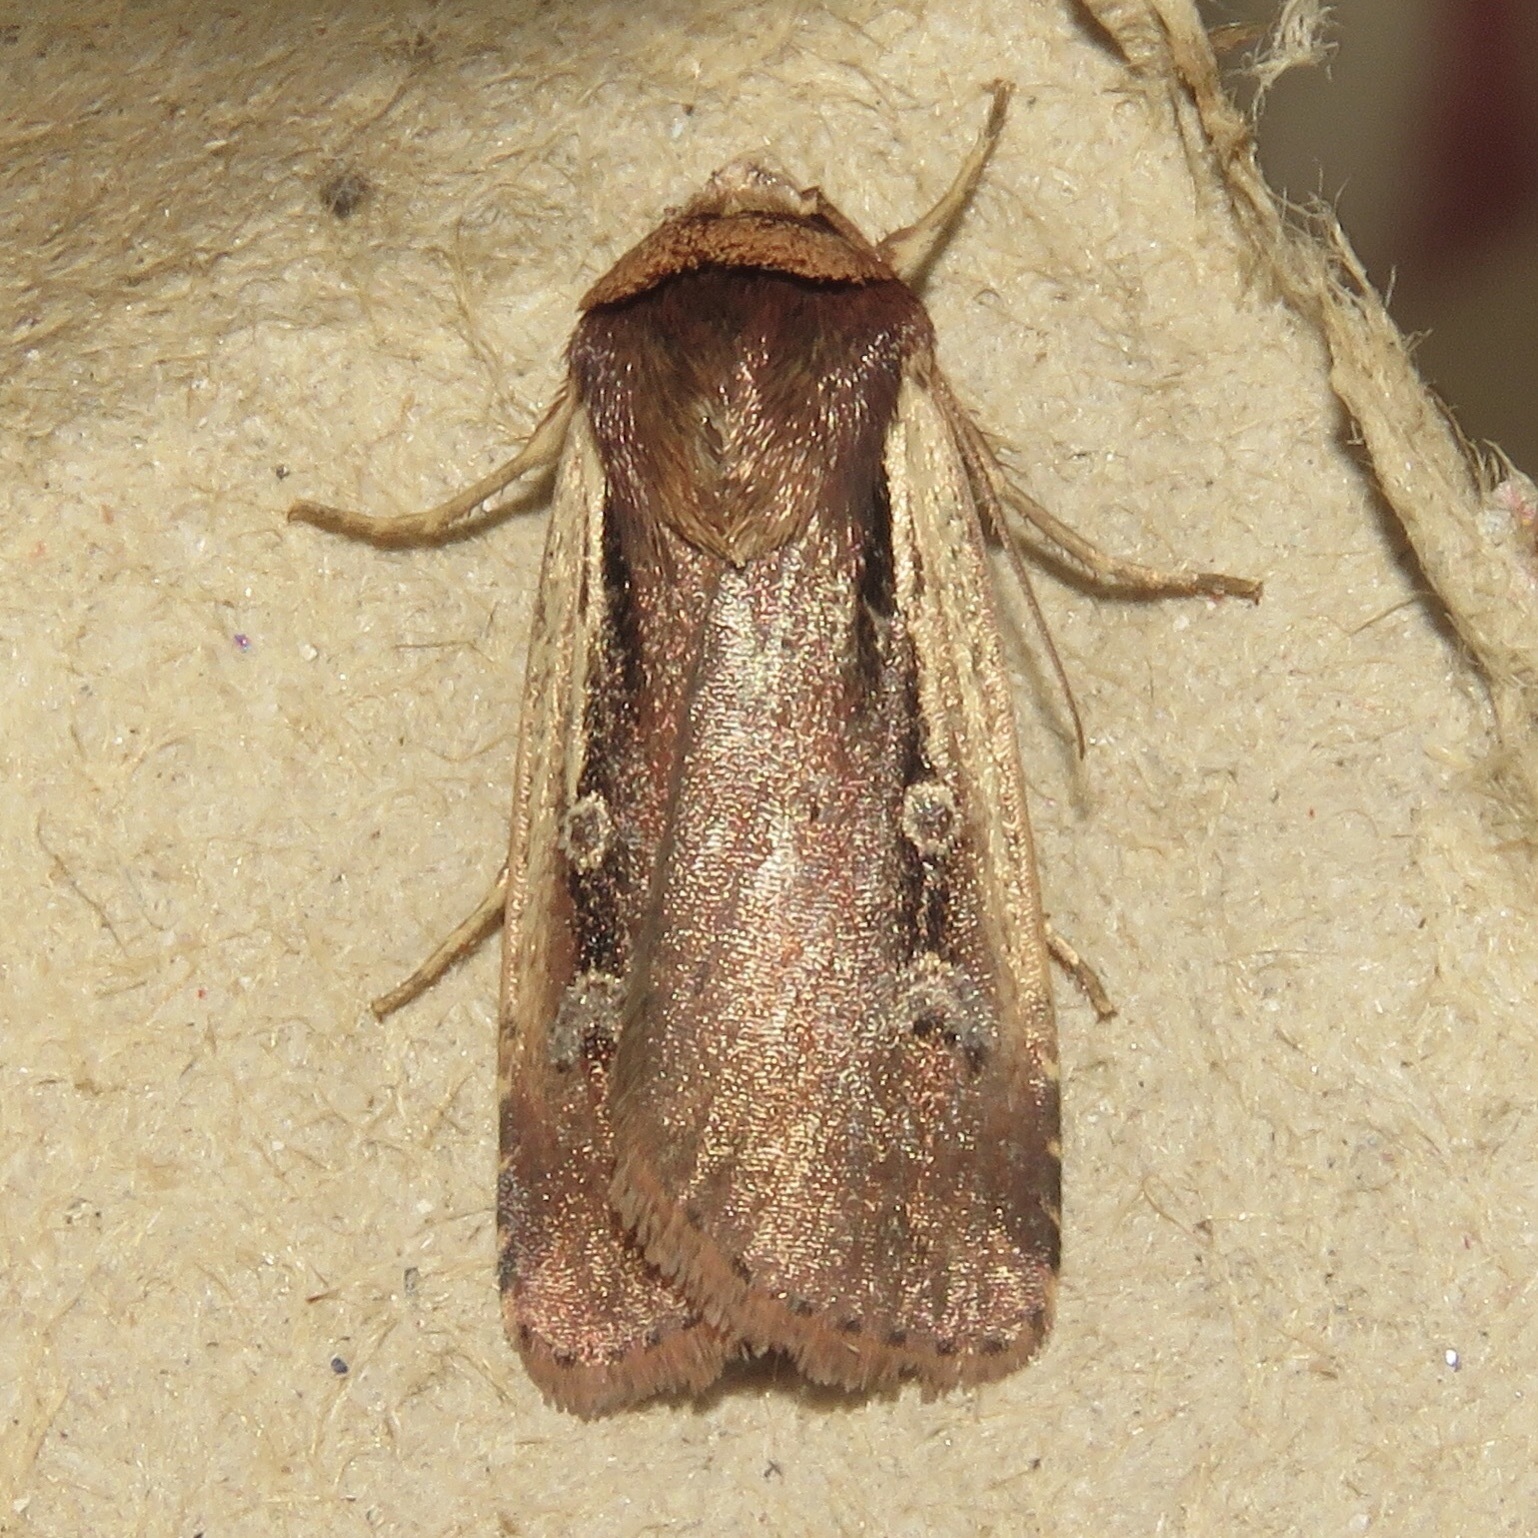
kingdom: Animalia
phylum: Arthropoda
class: Insecta
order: Lepidoptera
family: Noctuidae
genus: Ochropleura
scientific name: Ochropleura implecta
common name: Flame-shouldered dart
